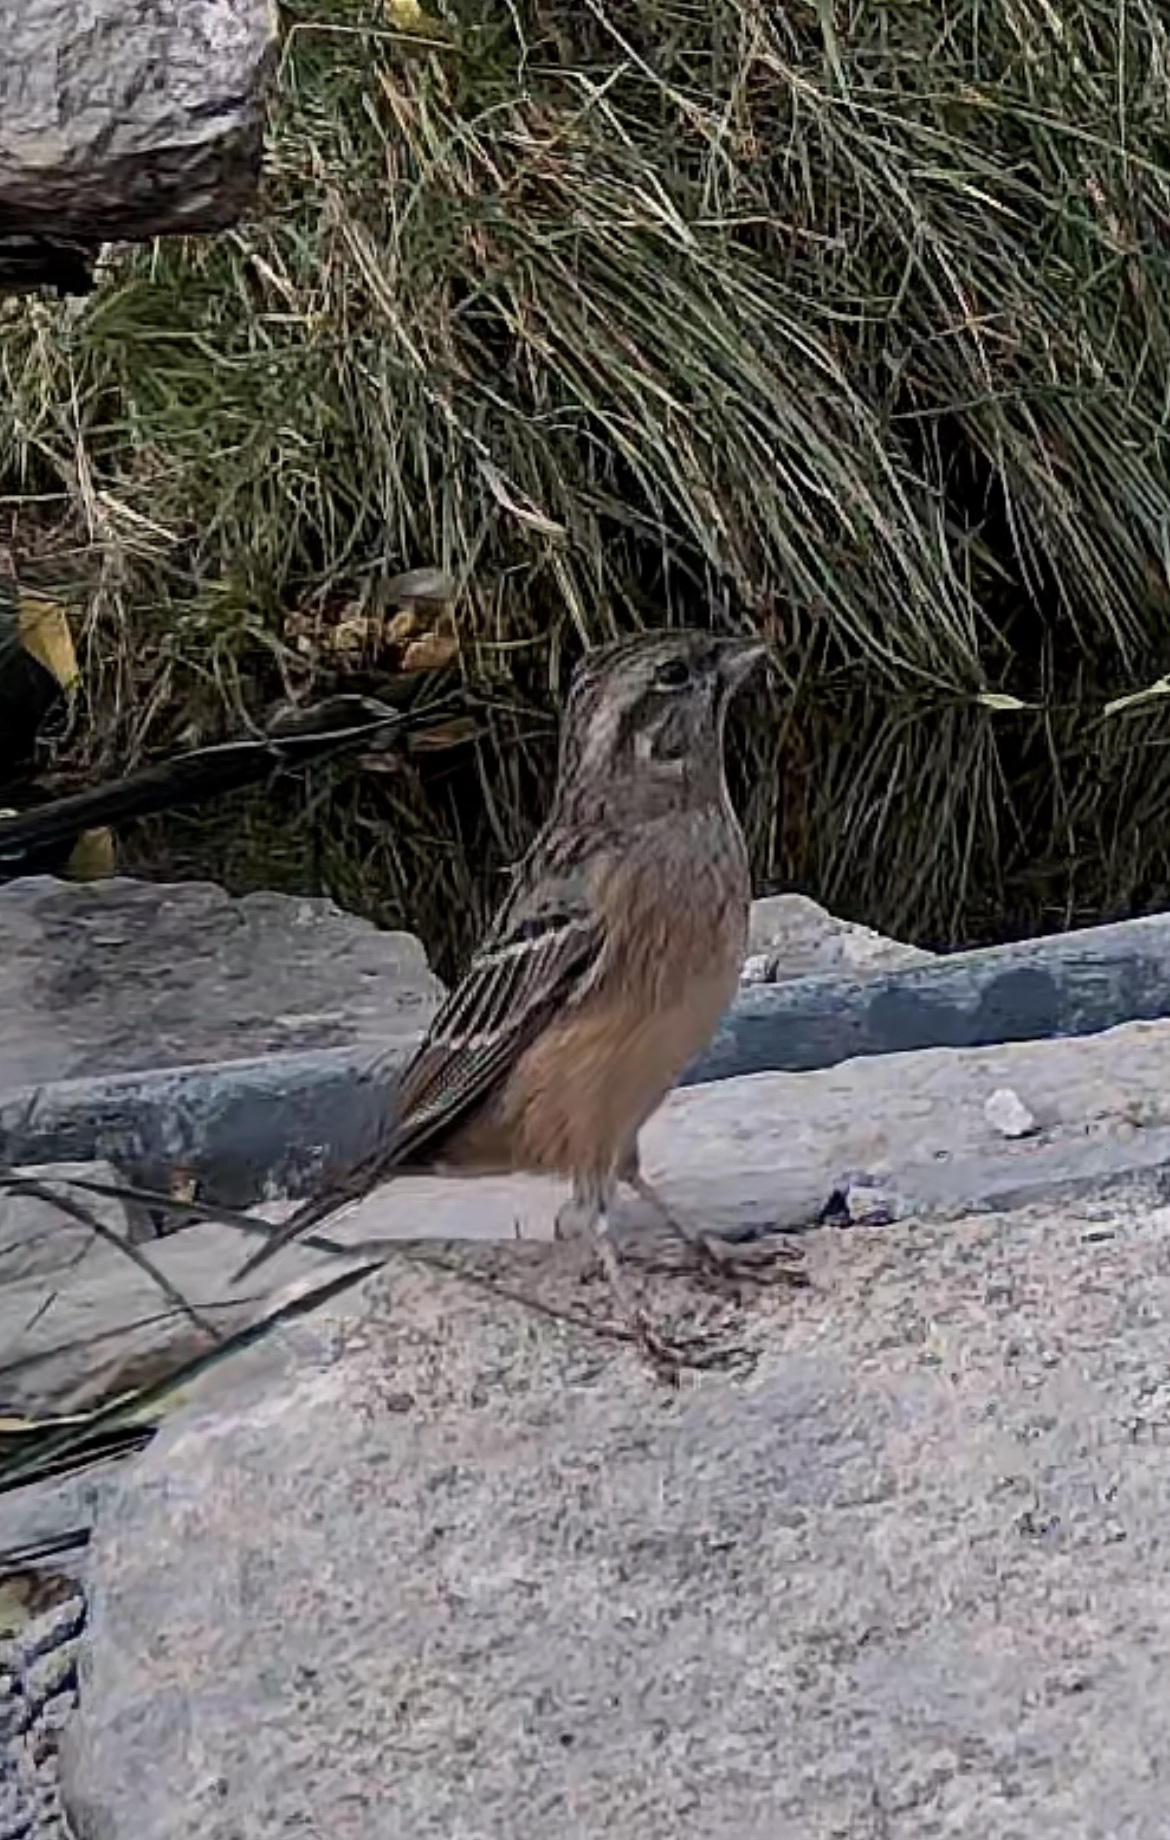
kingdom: Animalia
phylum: Chordata
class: Aves
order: Passeriformes
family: Emberizidae
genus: Emberiza
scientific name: Emberiza cia
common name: Rock bunting
